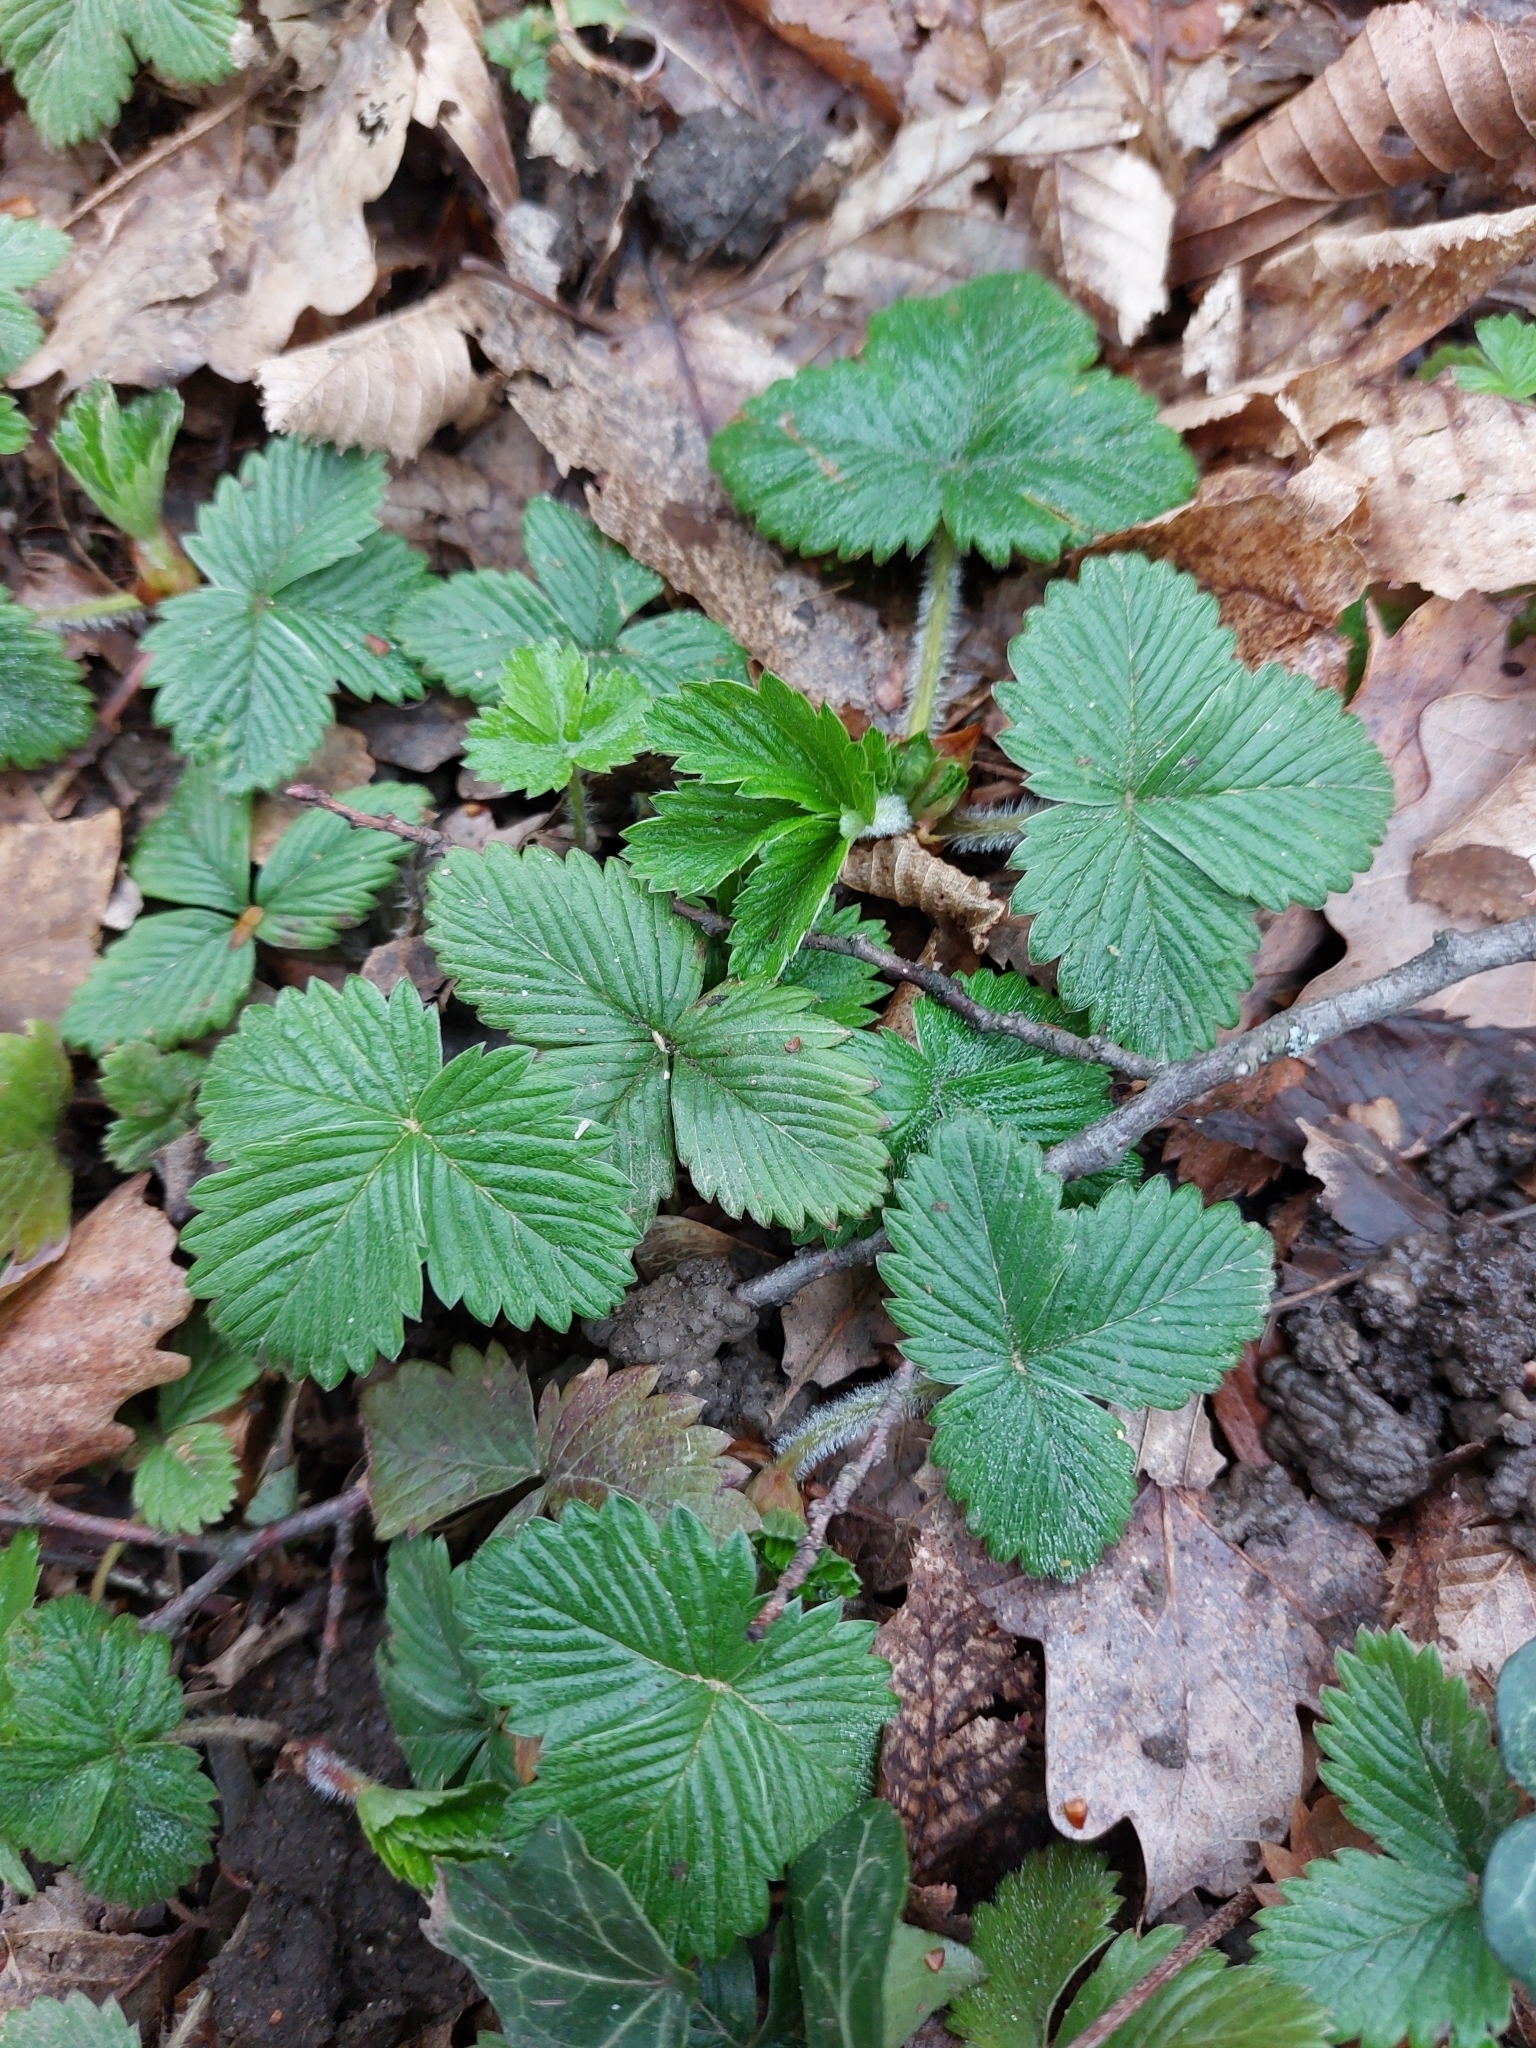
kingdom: Plantae
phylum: Tracheophyta
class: Magnoliopsida
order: Rosales
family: Rosaceae
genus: Fragaria
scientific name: Fragaria vesca
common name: Wild strawberry
